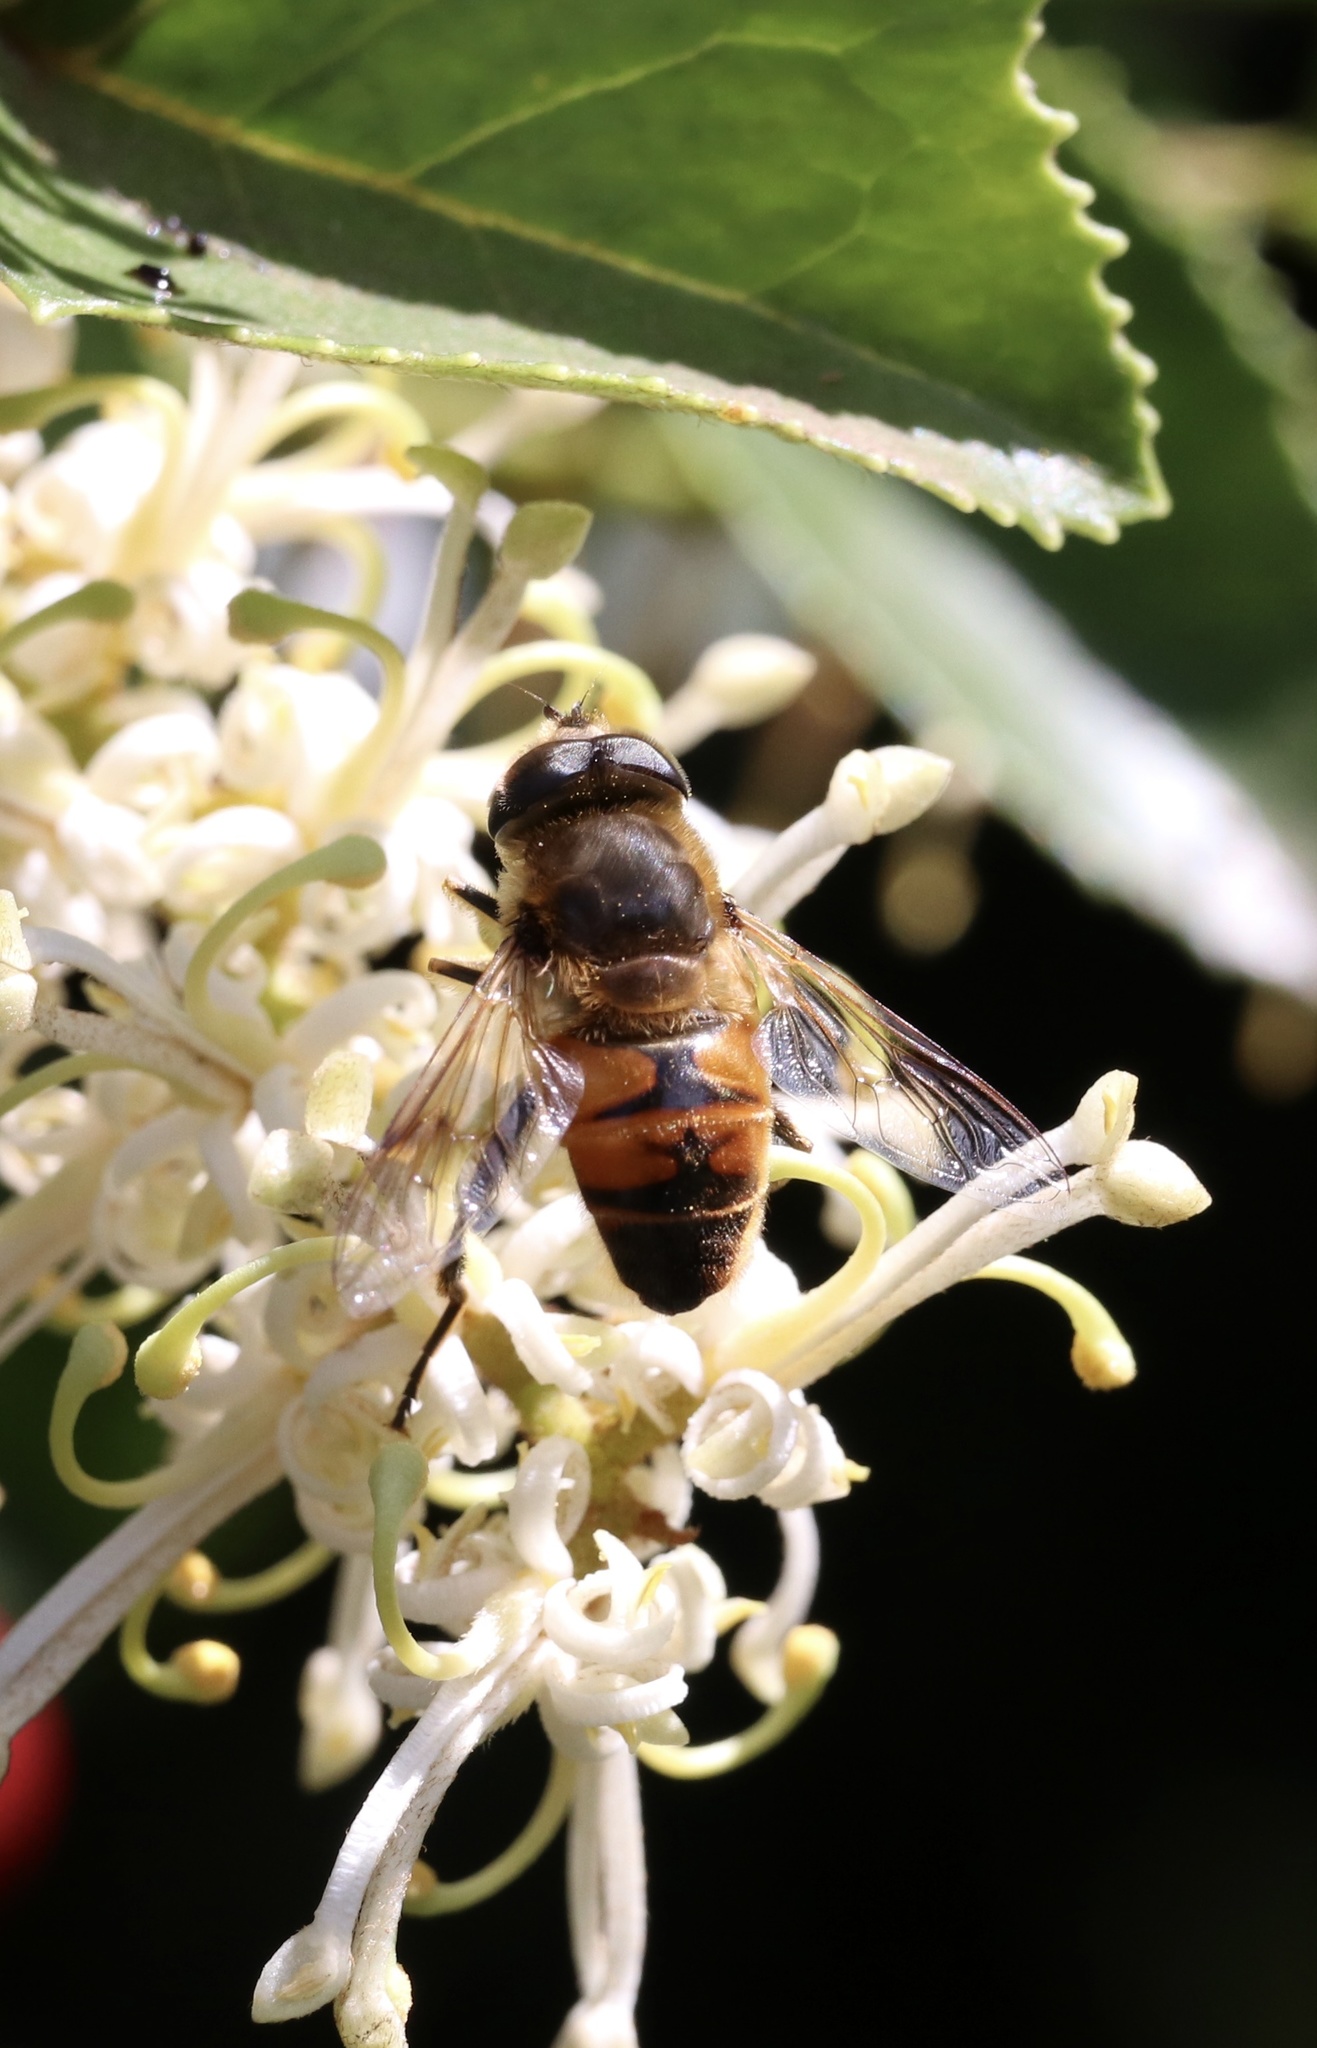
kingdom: Animalia
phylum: Arthropoda
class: Insecta
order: Diptera
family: Syrphidae
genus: Eristalis
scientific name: Eristalis tenax
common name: Drone fly
